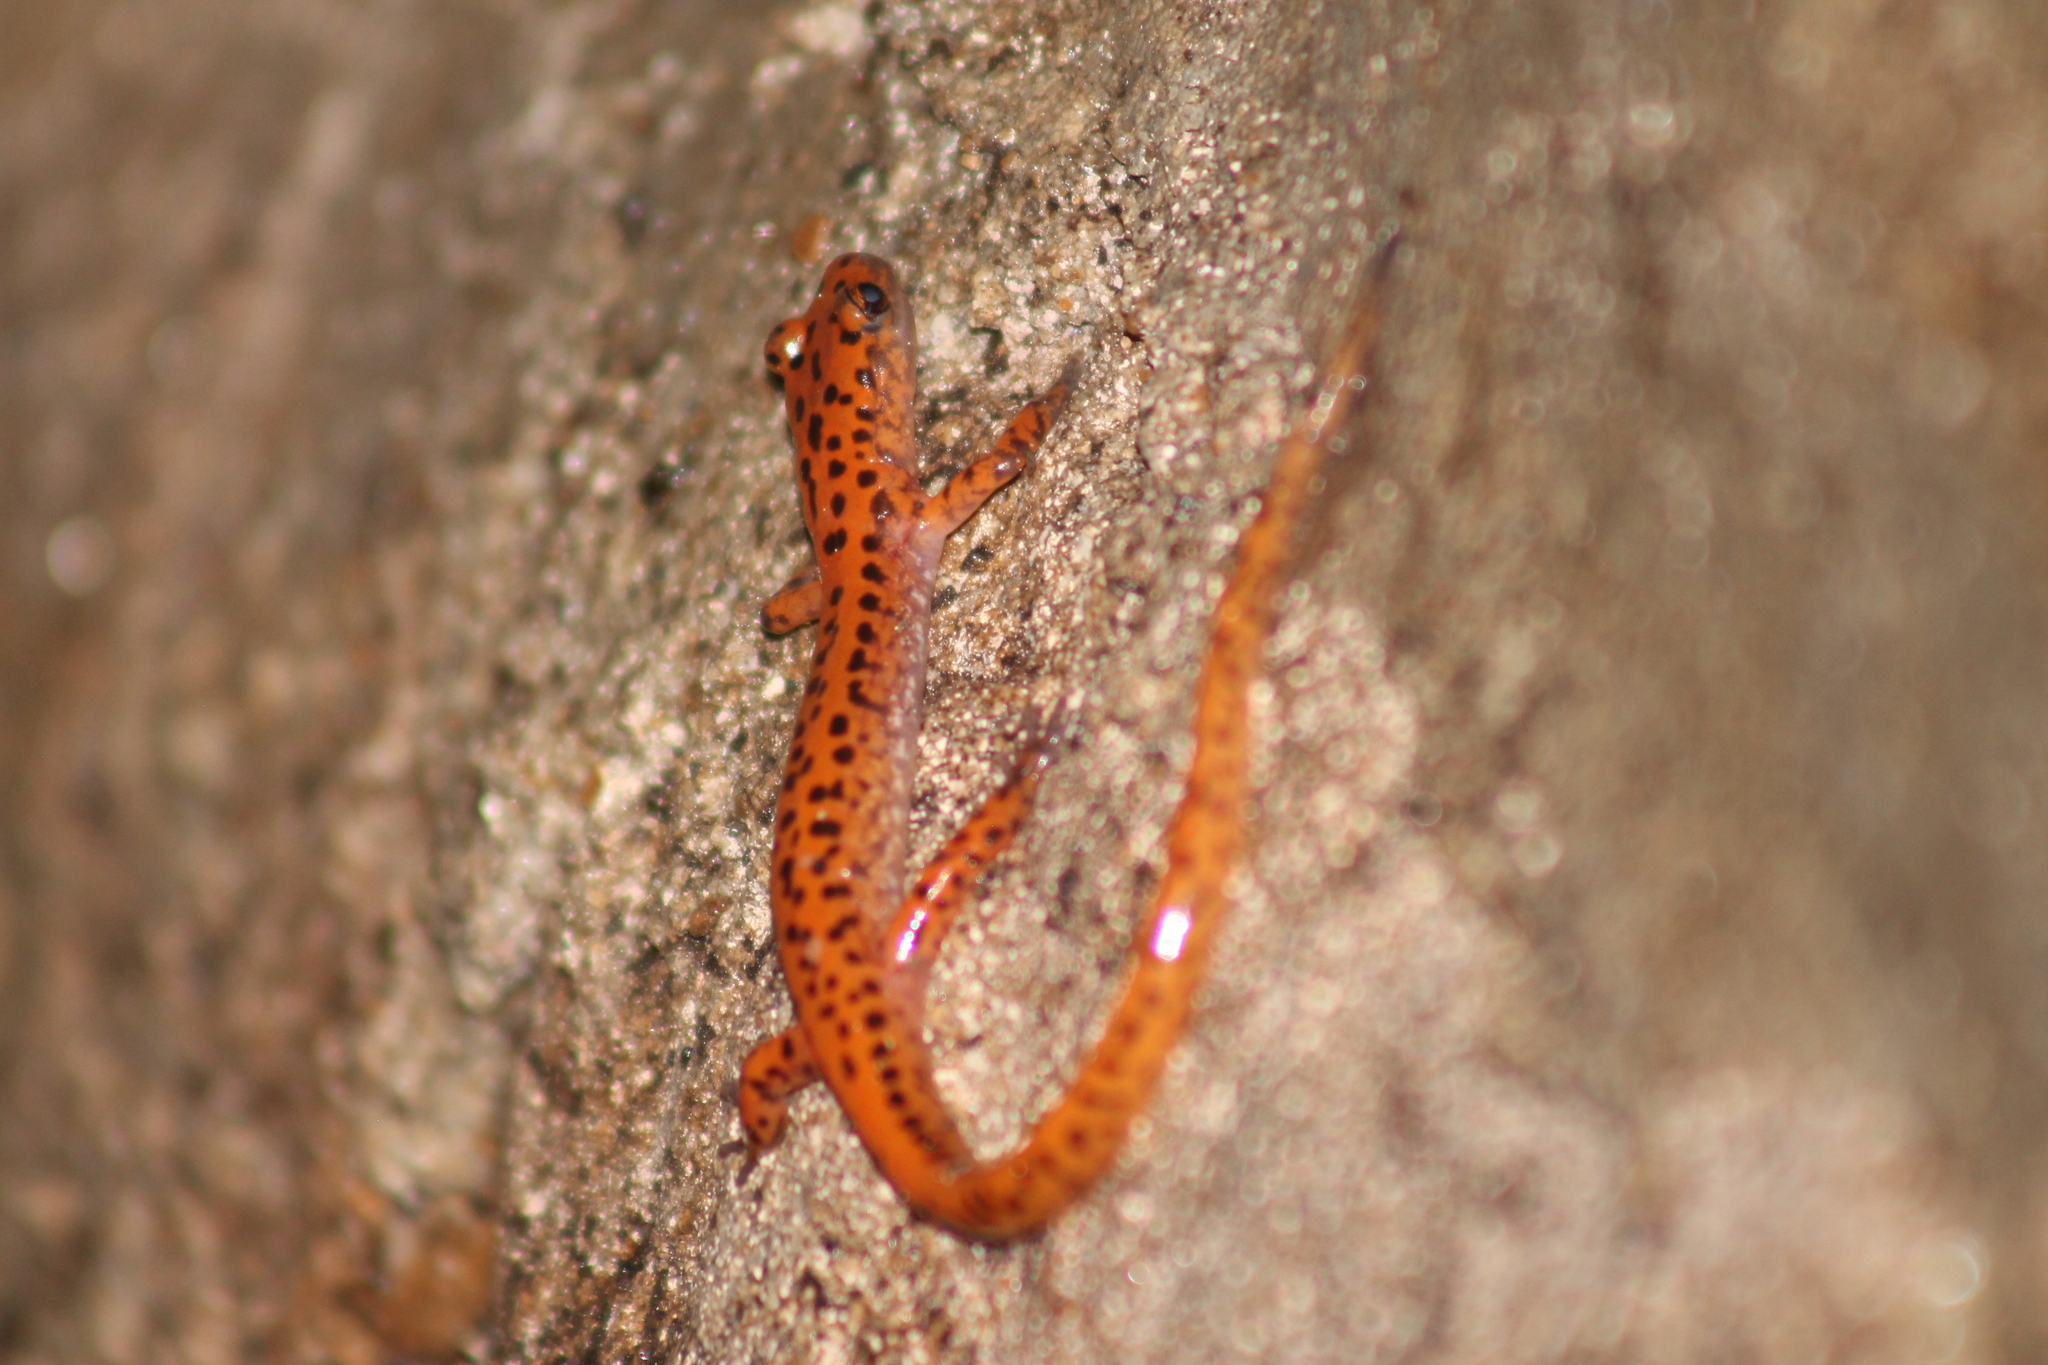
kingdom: Animalia
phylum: Chordata
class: Amphibia
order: Caudata
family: Plethodontidae
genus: Eurycea
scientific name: Eurycea lucifuga
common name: Cave salamander
